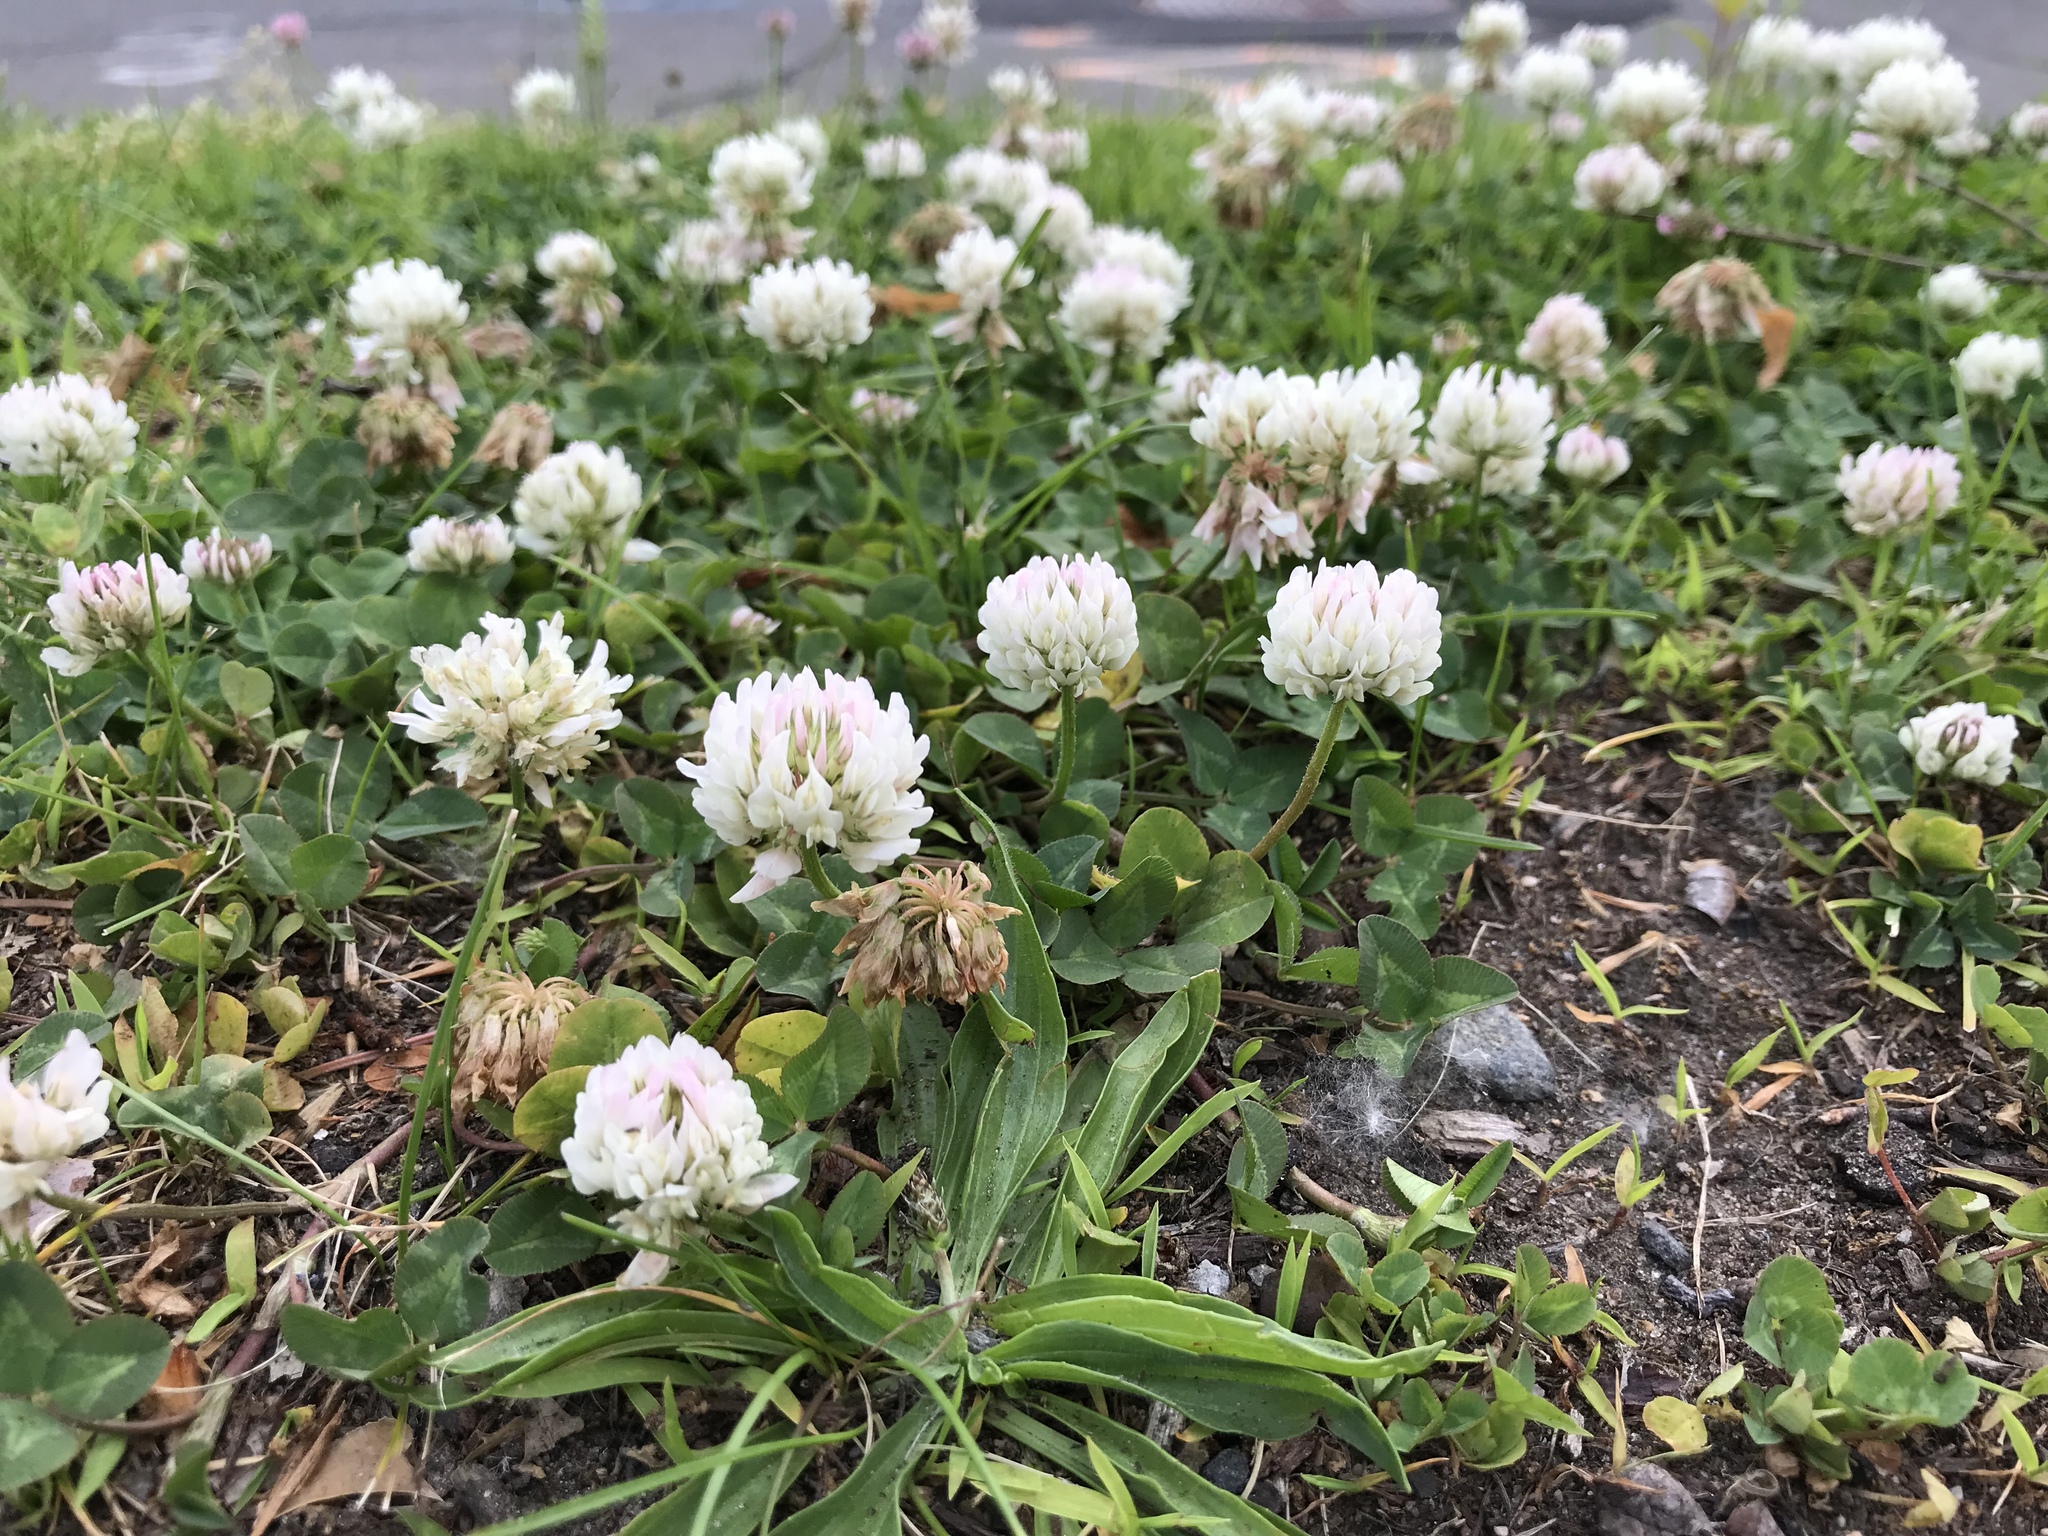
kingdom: Plantae
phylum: Tracheophyta
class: Magnoliopsida
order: Fabales
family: Fabaceae
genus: Trifolium
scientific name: Trifolium repens
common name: White clover
